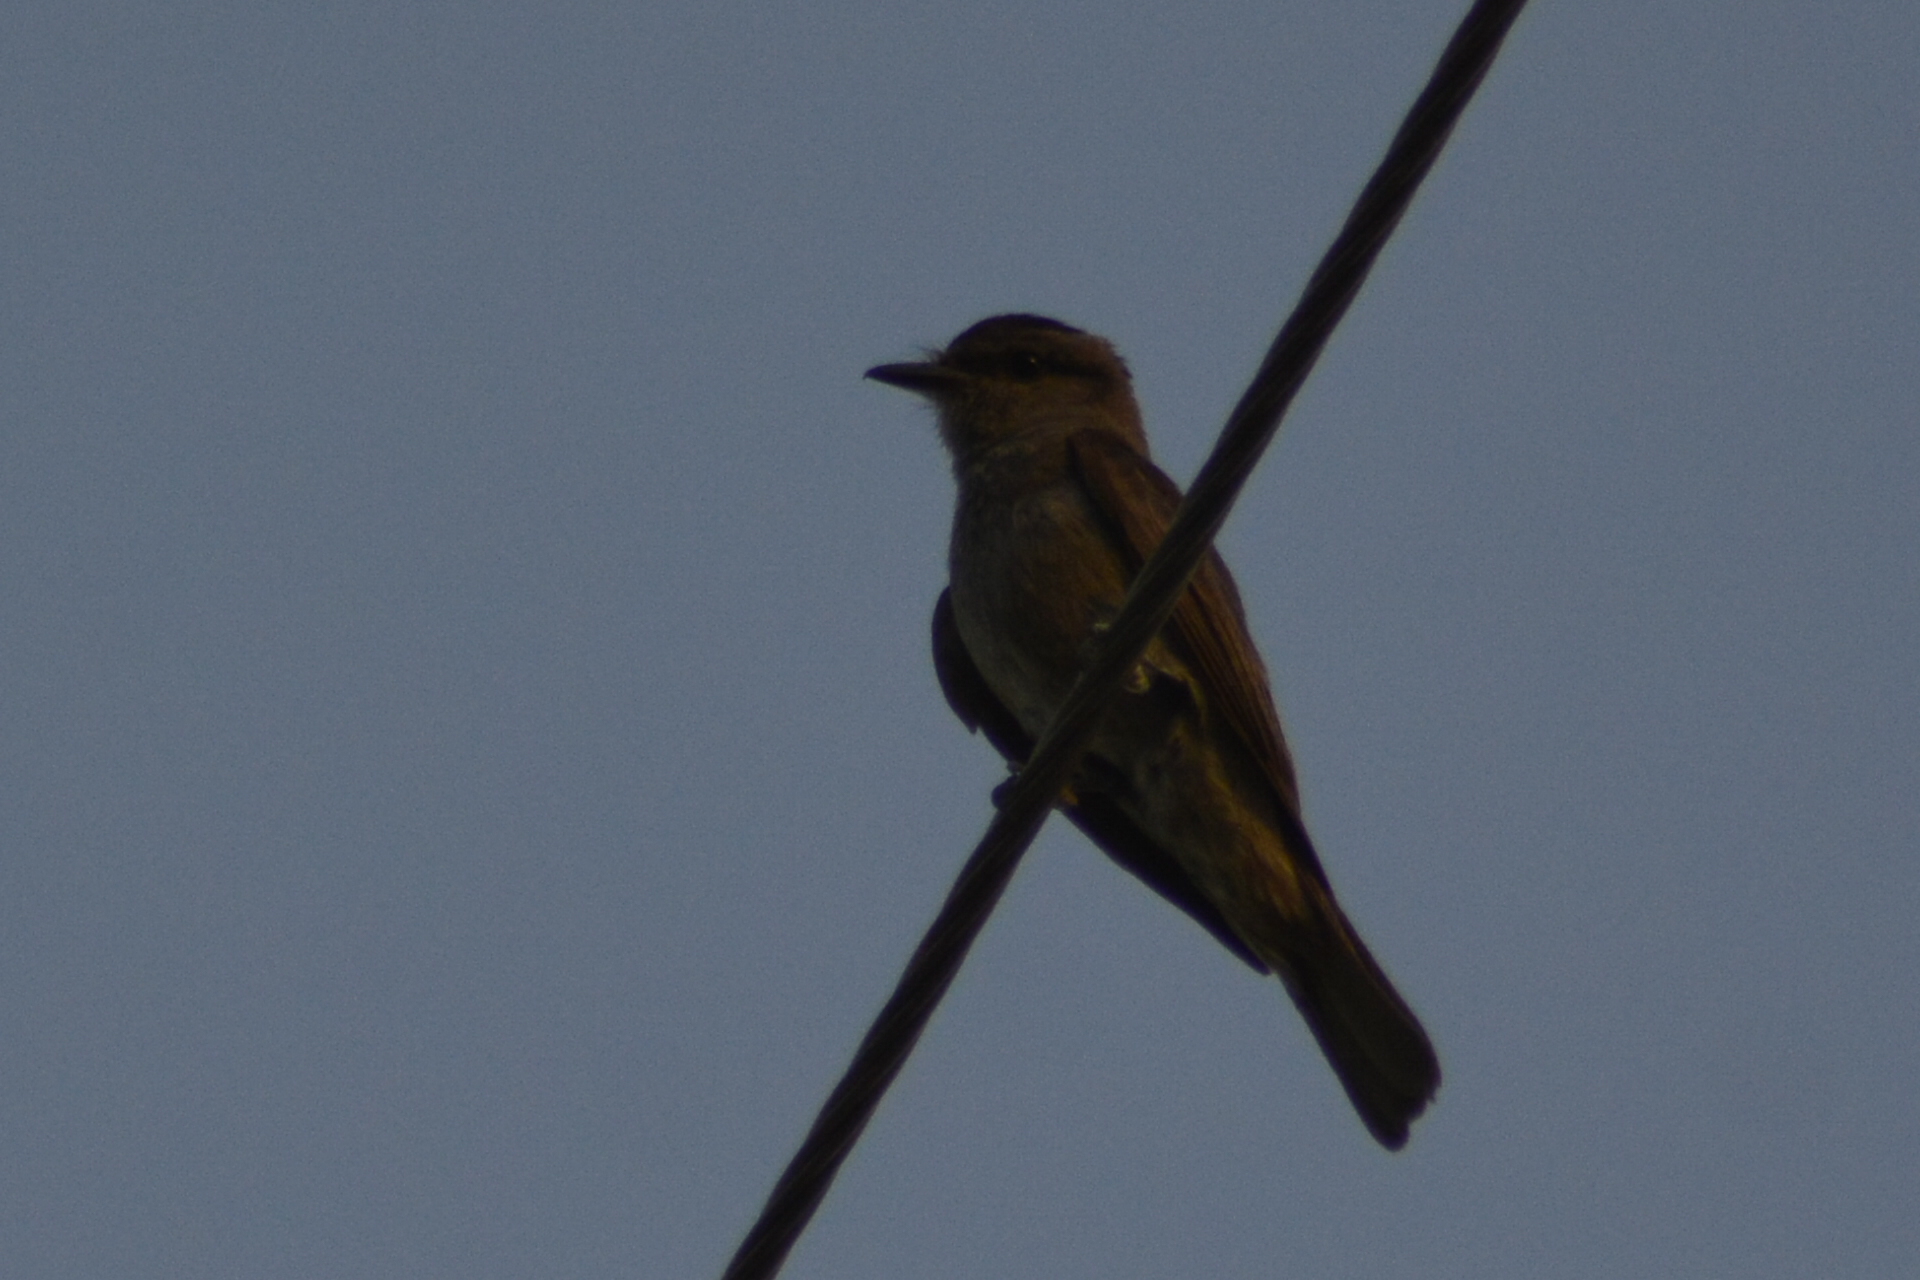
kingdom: Animalia
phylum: Chordata
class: Aves
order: Passeriformes
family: Tyrannidae
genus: Empidonomus
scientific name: Empidonomus aurantioatrocristatus
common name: Crowned slaty flycatcher
